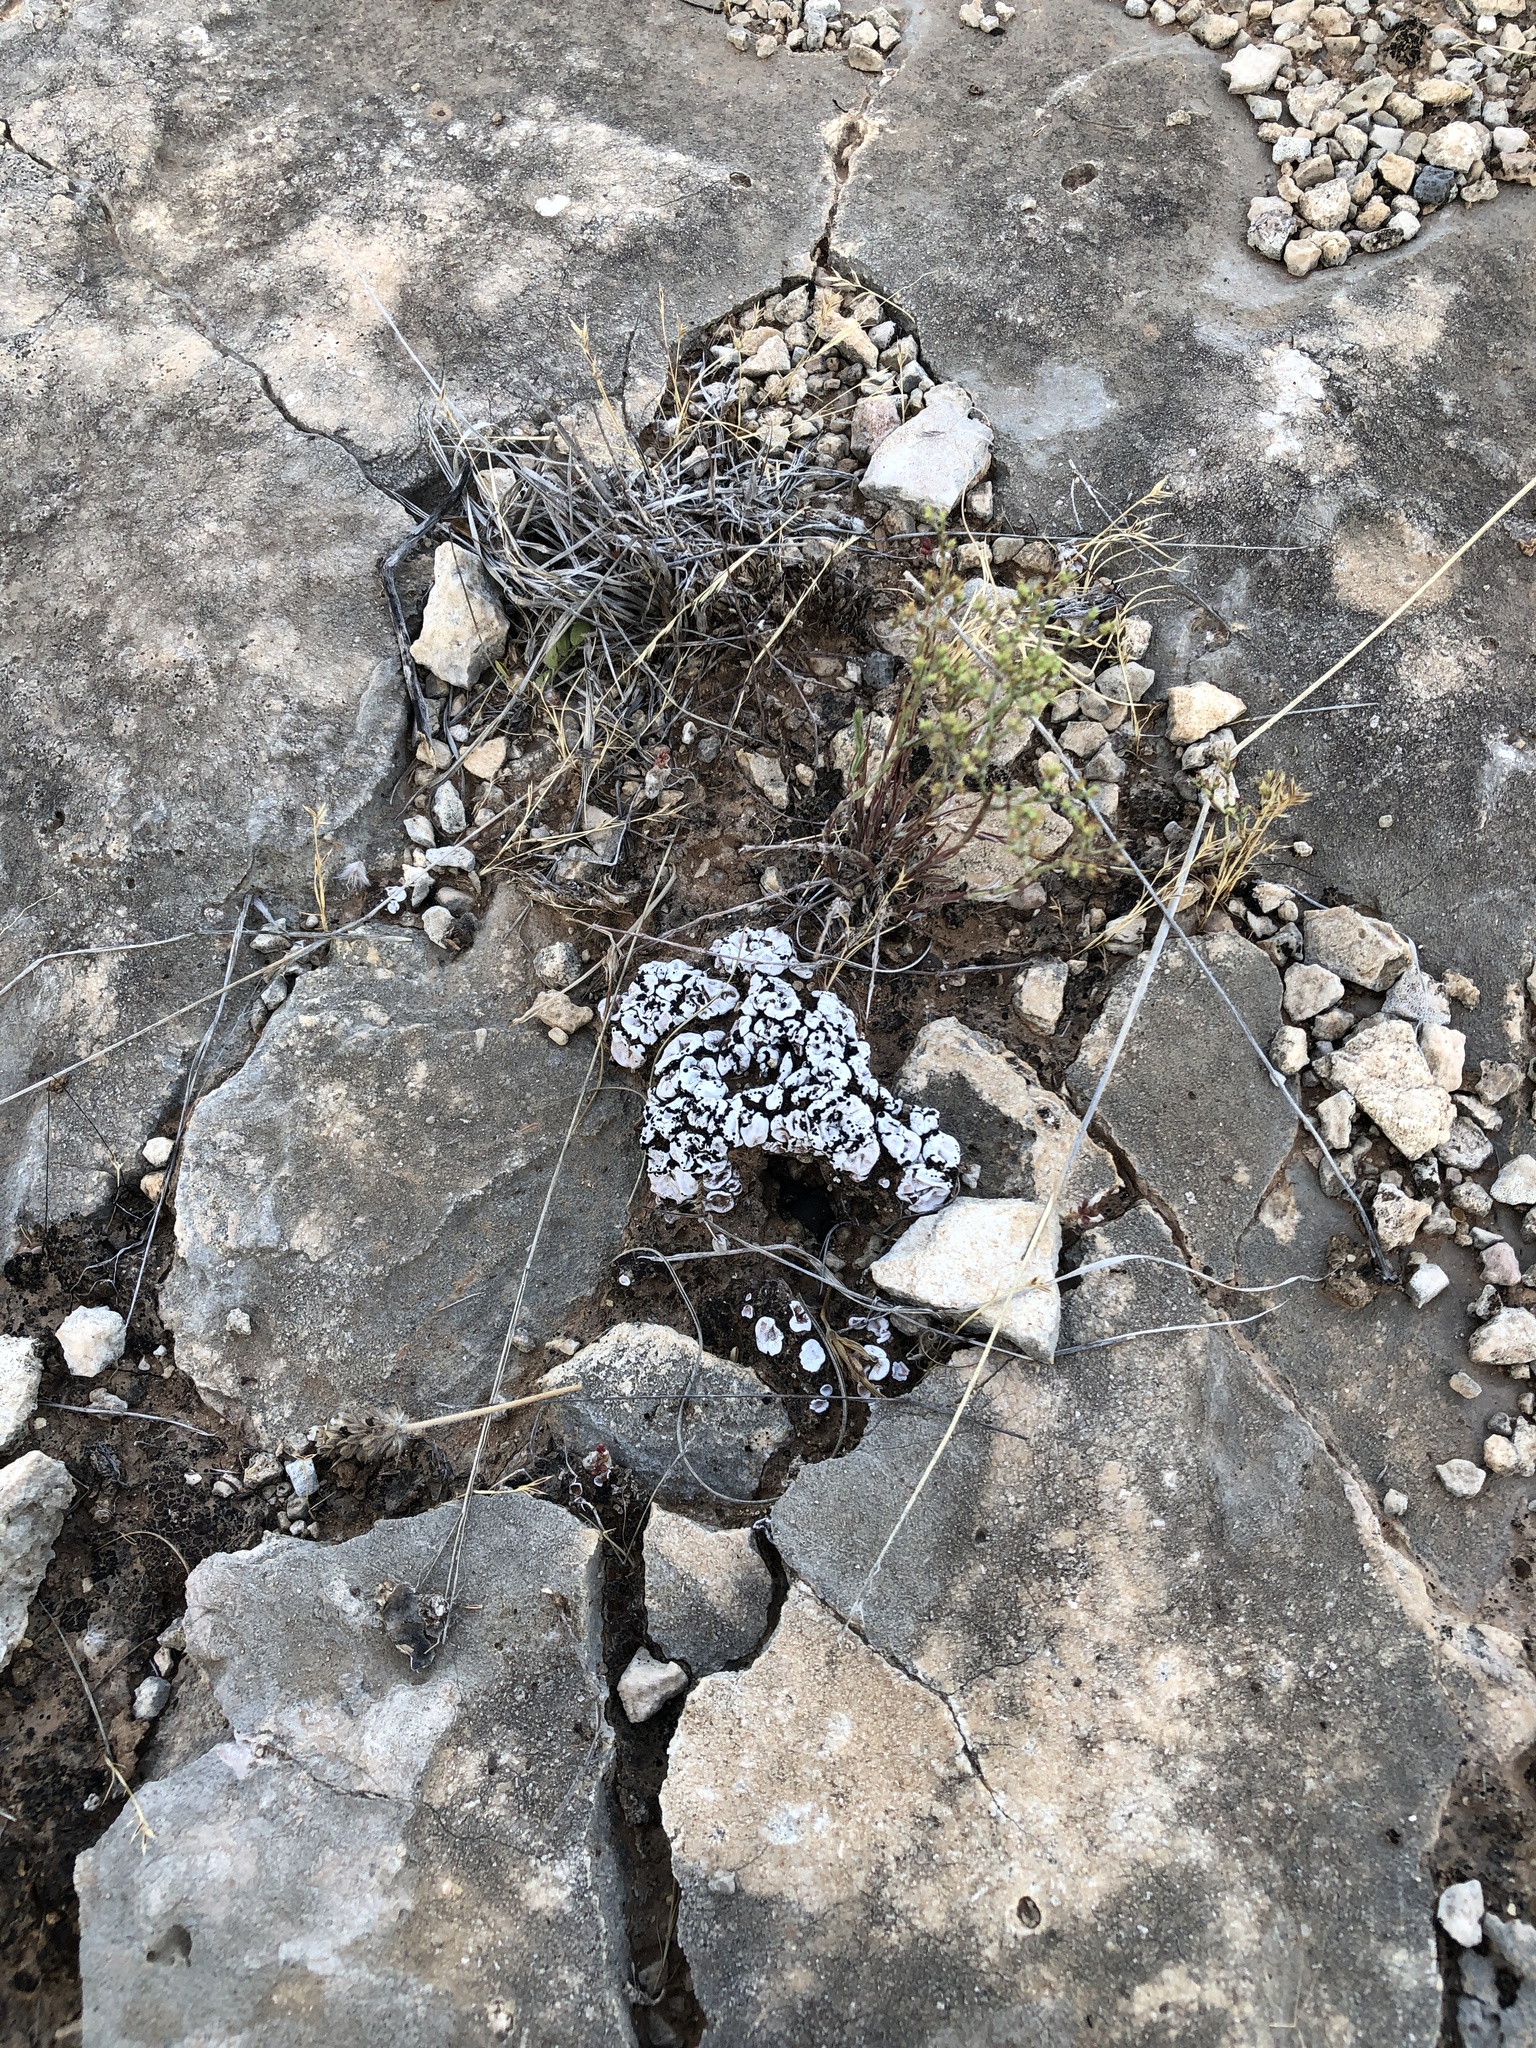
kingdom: Fungi
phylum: Ascomycota
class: Lecanoromycetes
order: Lecanorales
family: Psoraceae
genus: Psora
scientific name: Psora crenata
